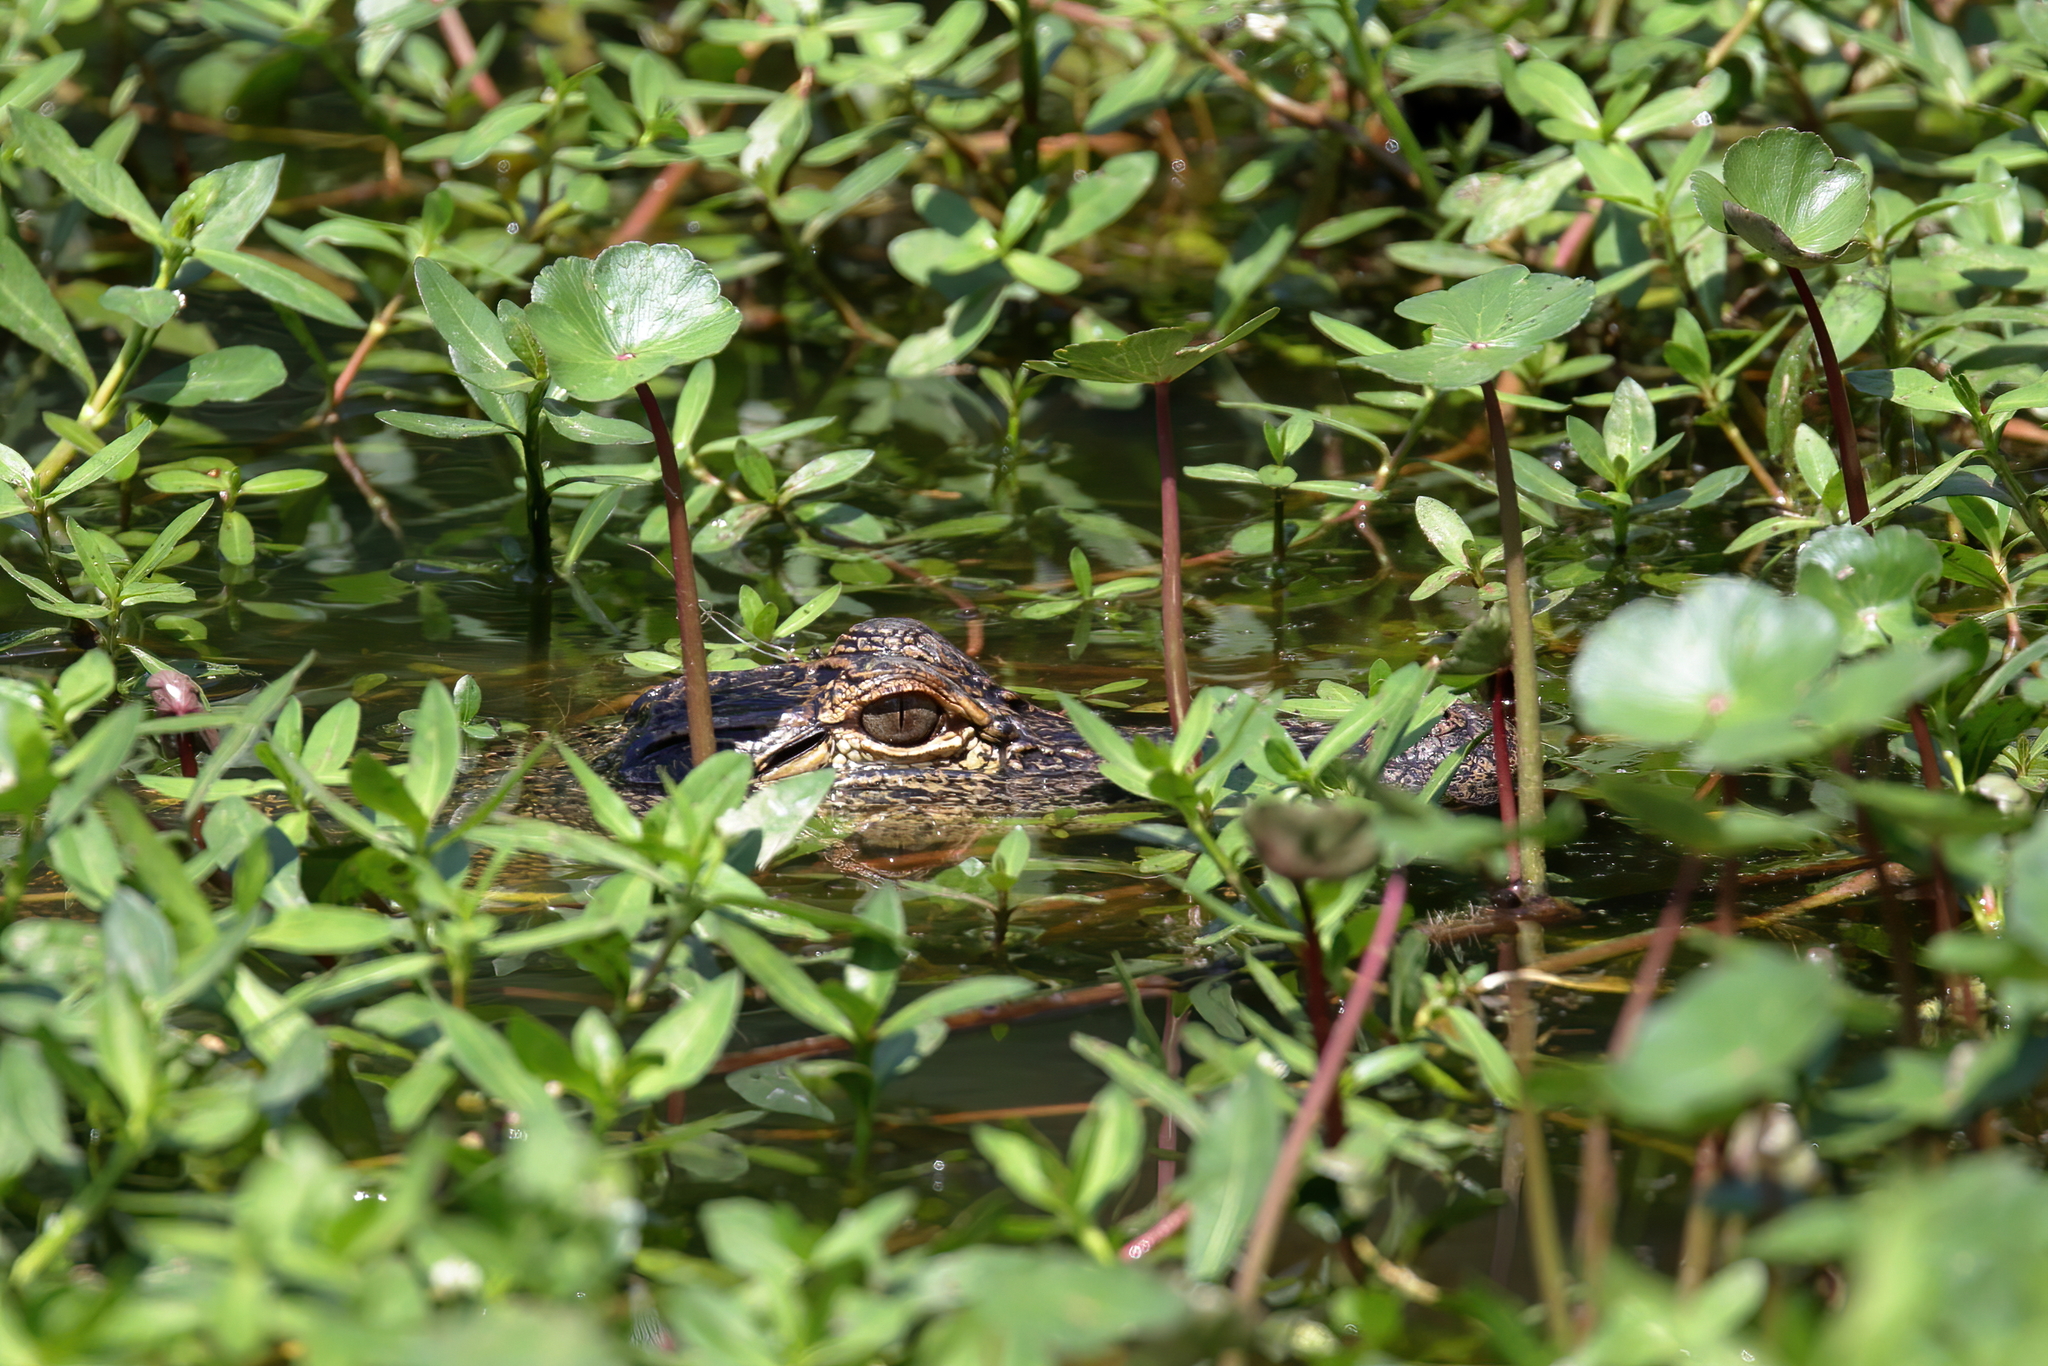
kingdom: Animalia
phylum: Chordata
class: Crocodylia
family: Alligatoridae
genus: Alligator
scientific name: Alligator mississippiensis
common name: American alligator
